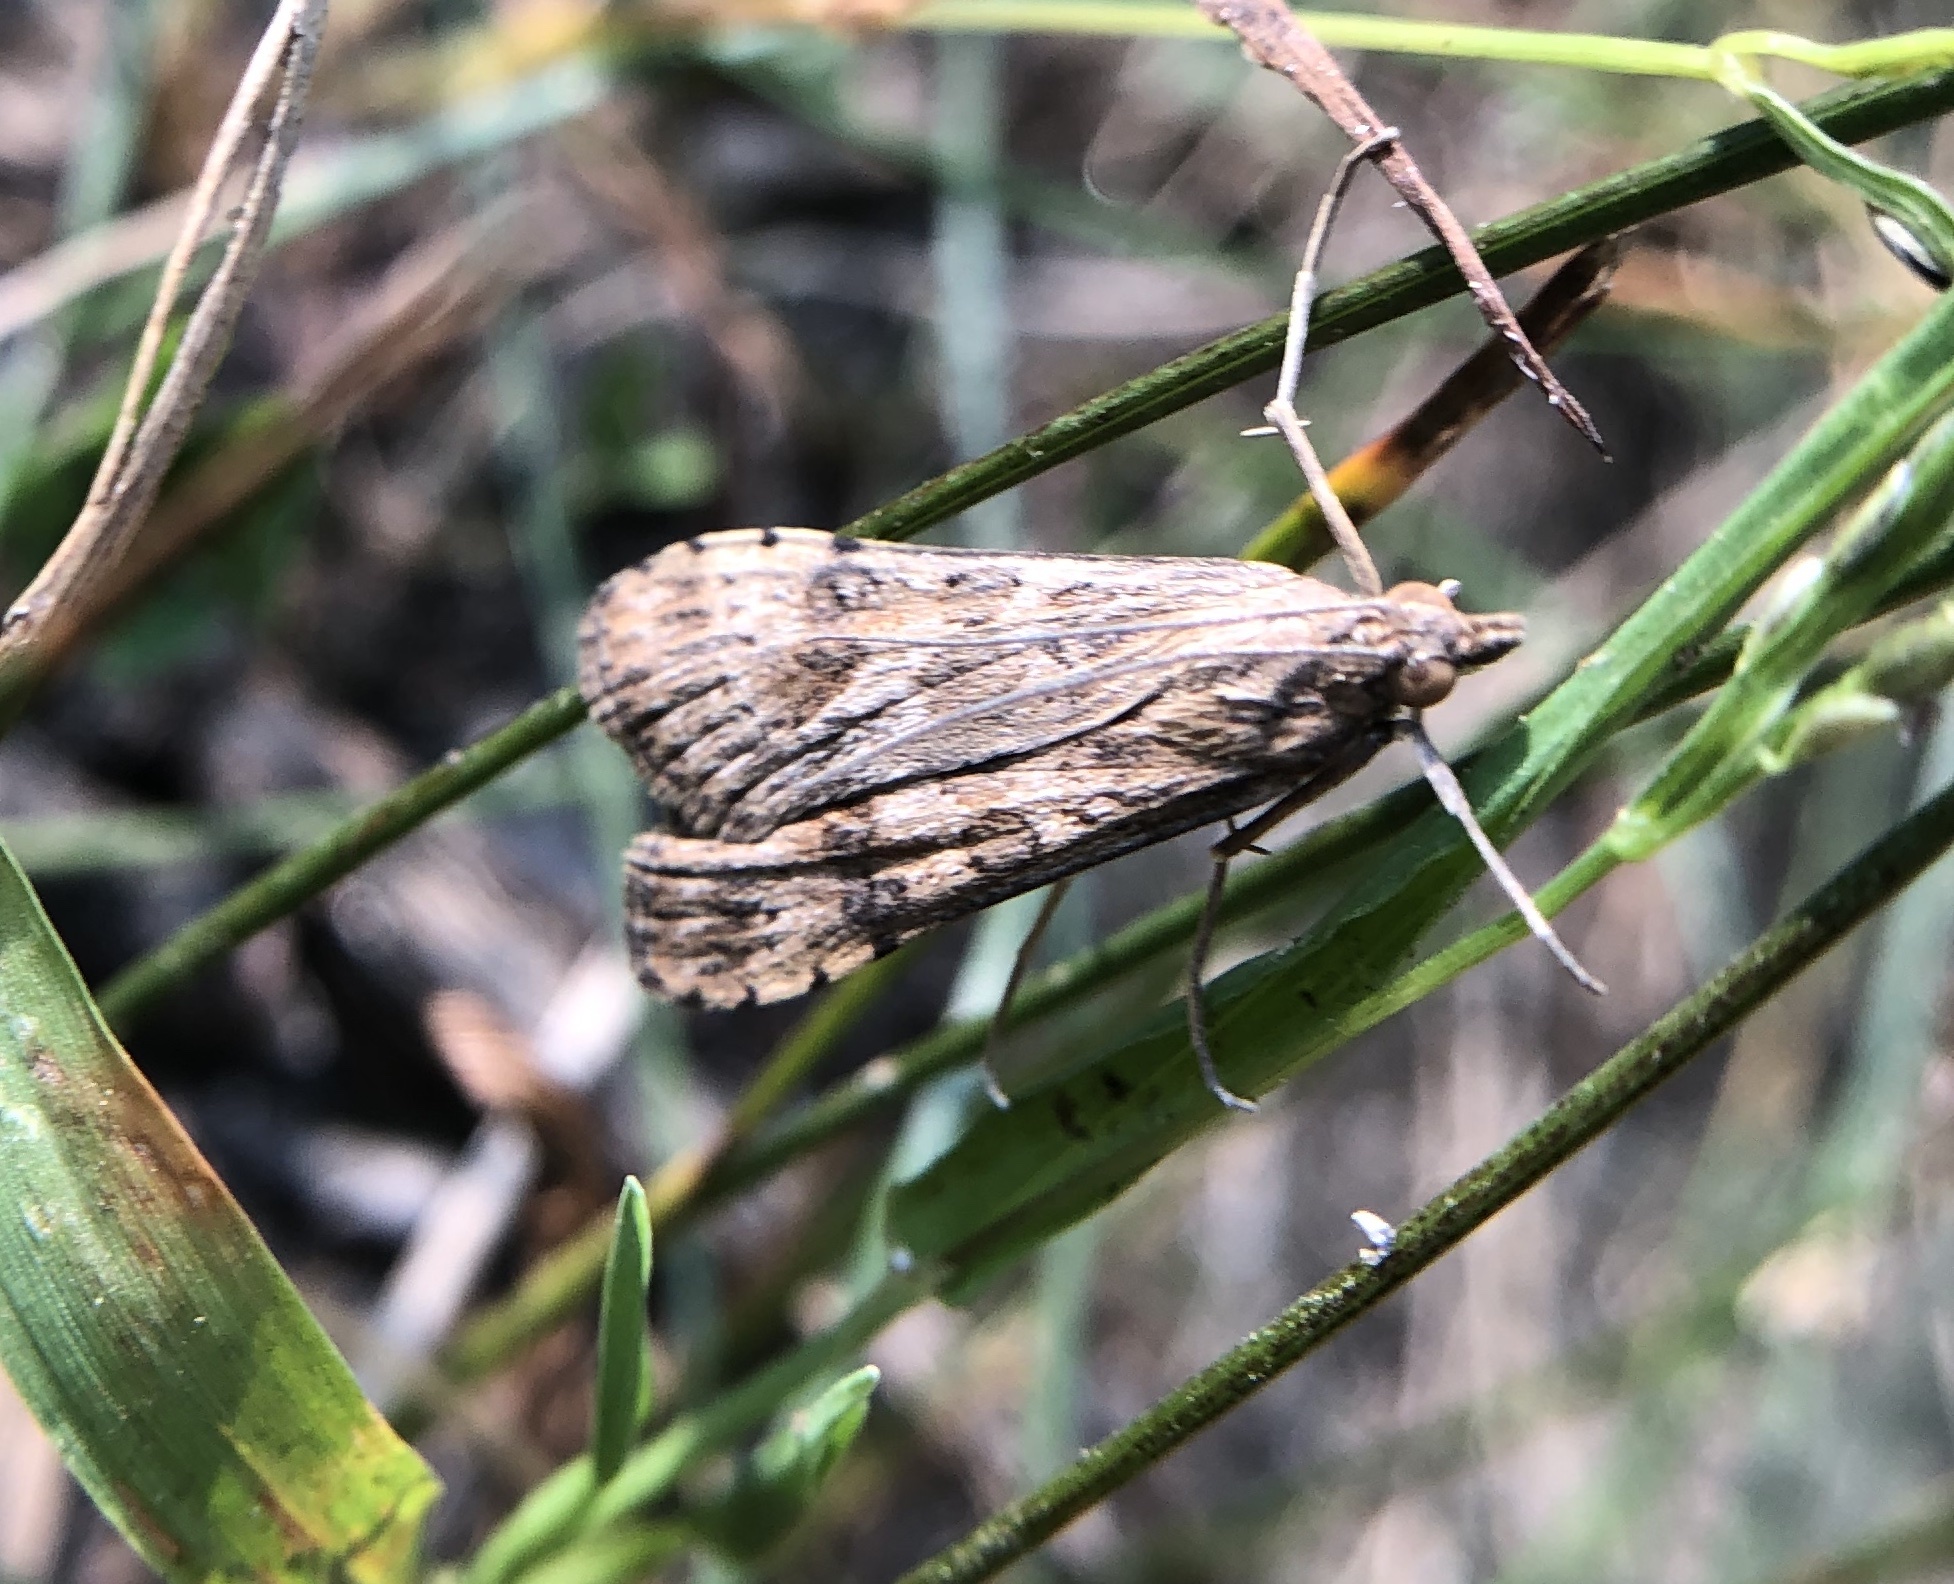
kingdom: Animalia
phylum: Arthropoda
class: Insecta
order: Lepidoptera
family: Crambidae
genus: Nomophila
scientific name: Nomophila nearctica
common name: American rush veneer
